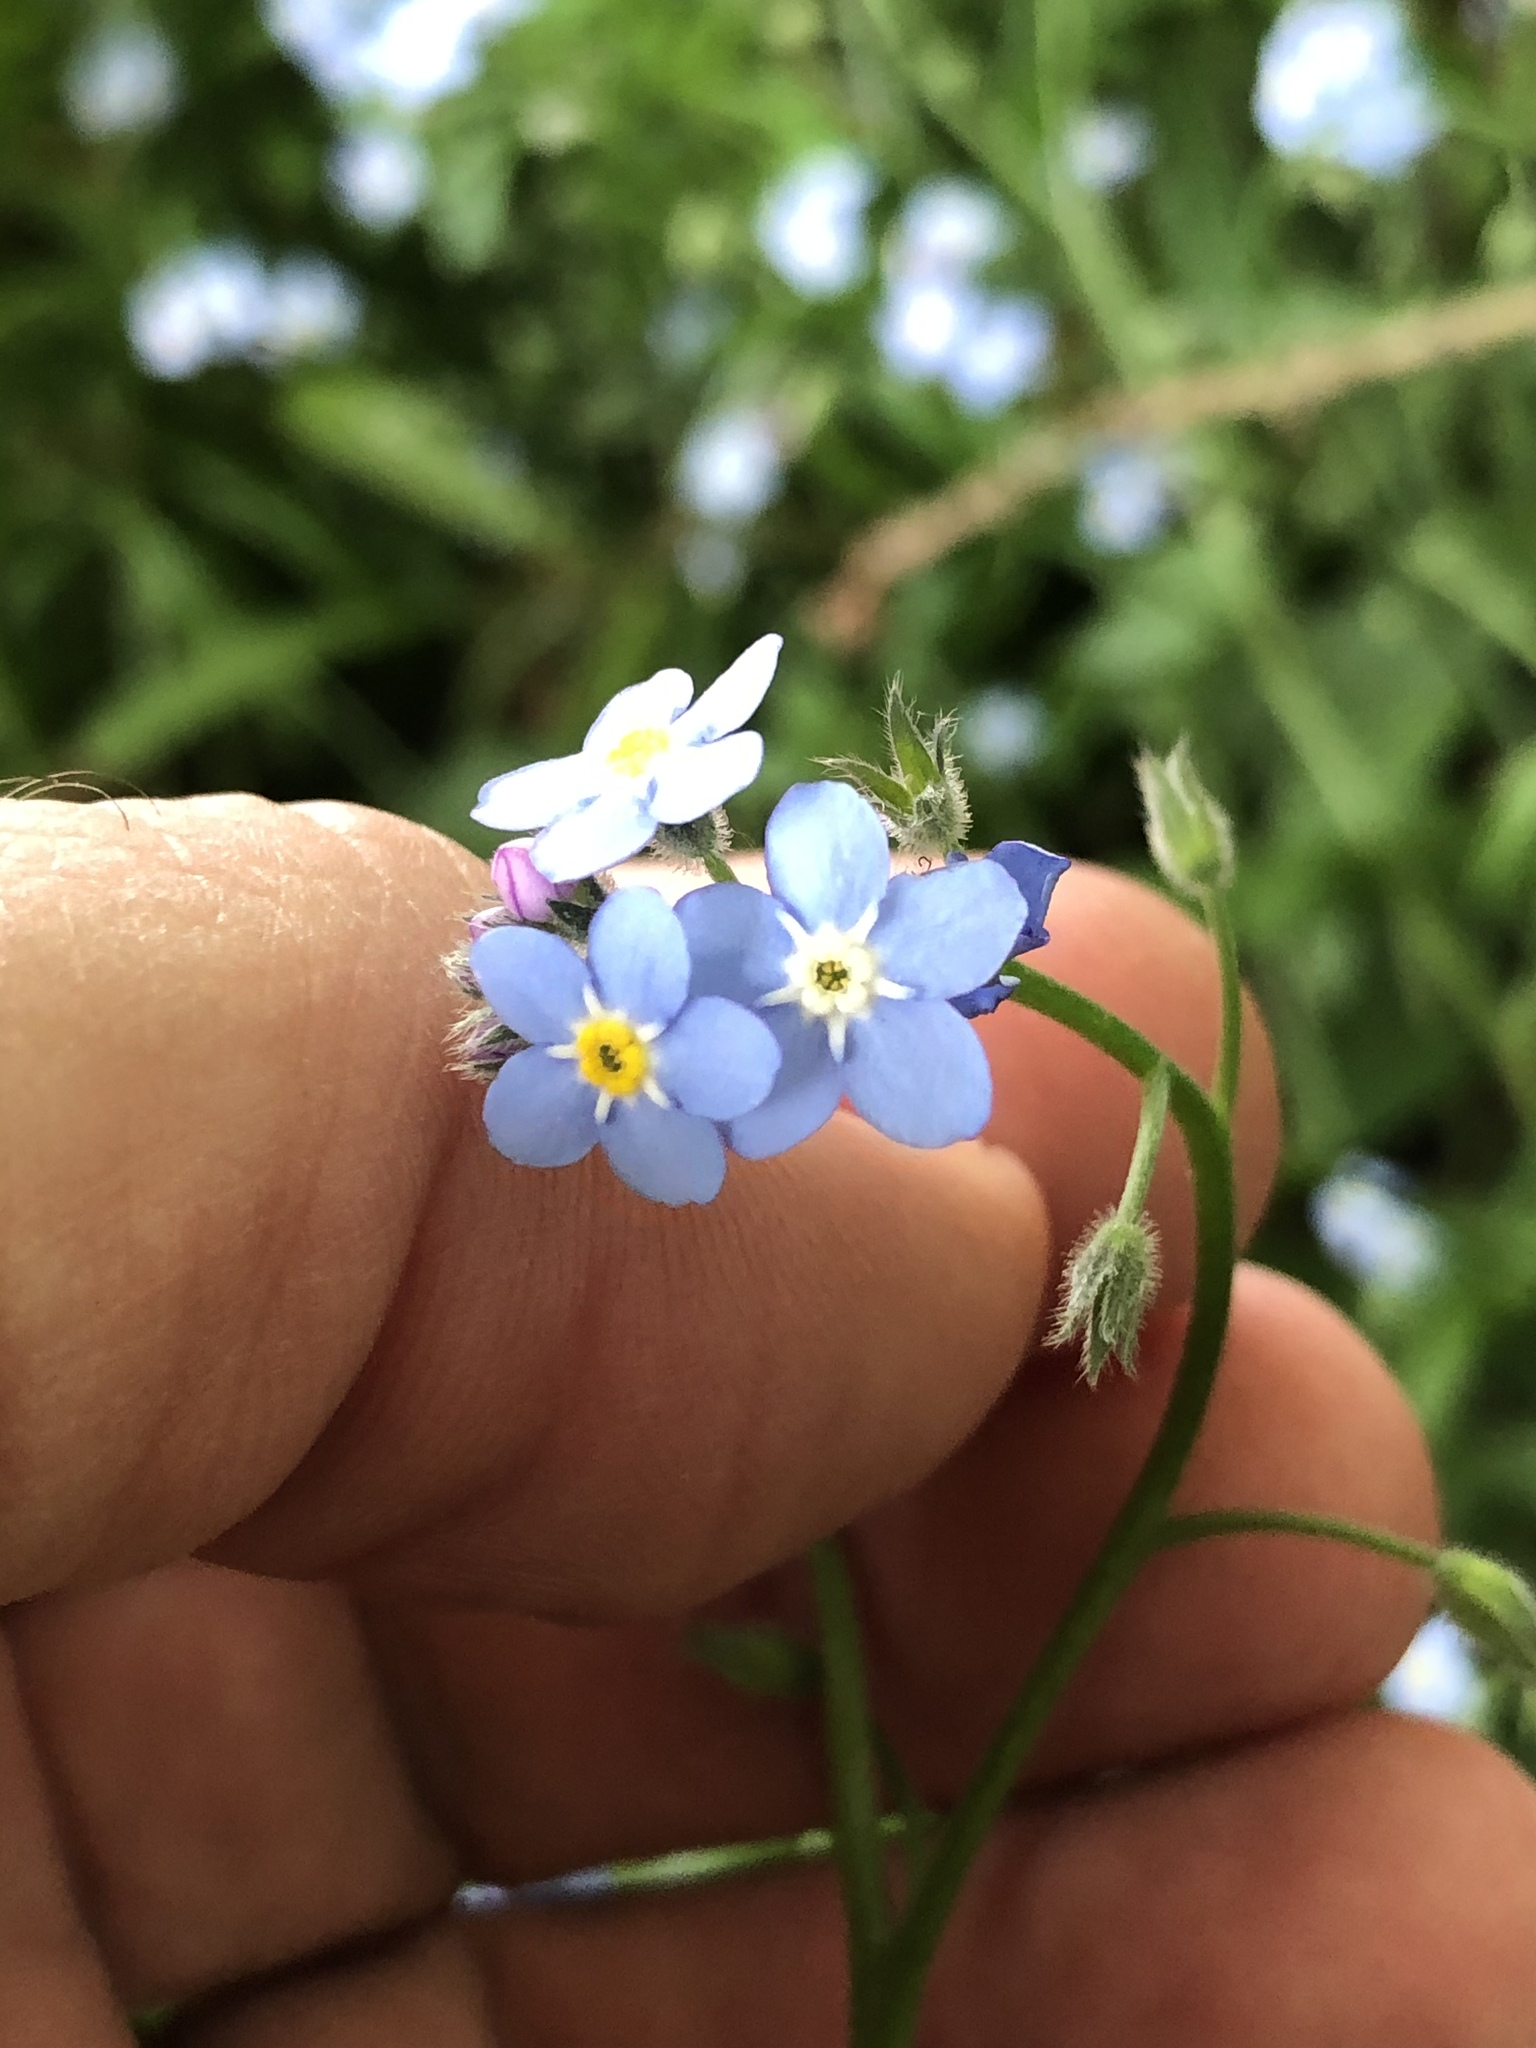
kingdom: Plantae
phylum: Tracheophyta
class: Magnoliopsida
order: Boraginales
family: Boraginaceae
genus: Myosotis
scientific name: Myosotis sylvatica
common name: Wood forget-me-not
